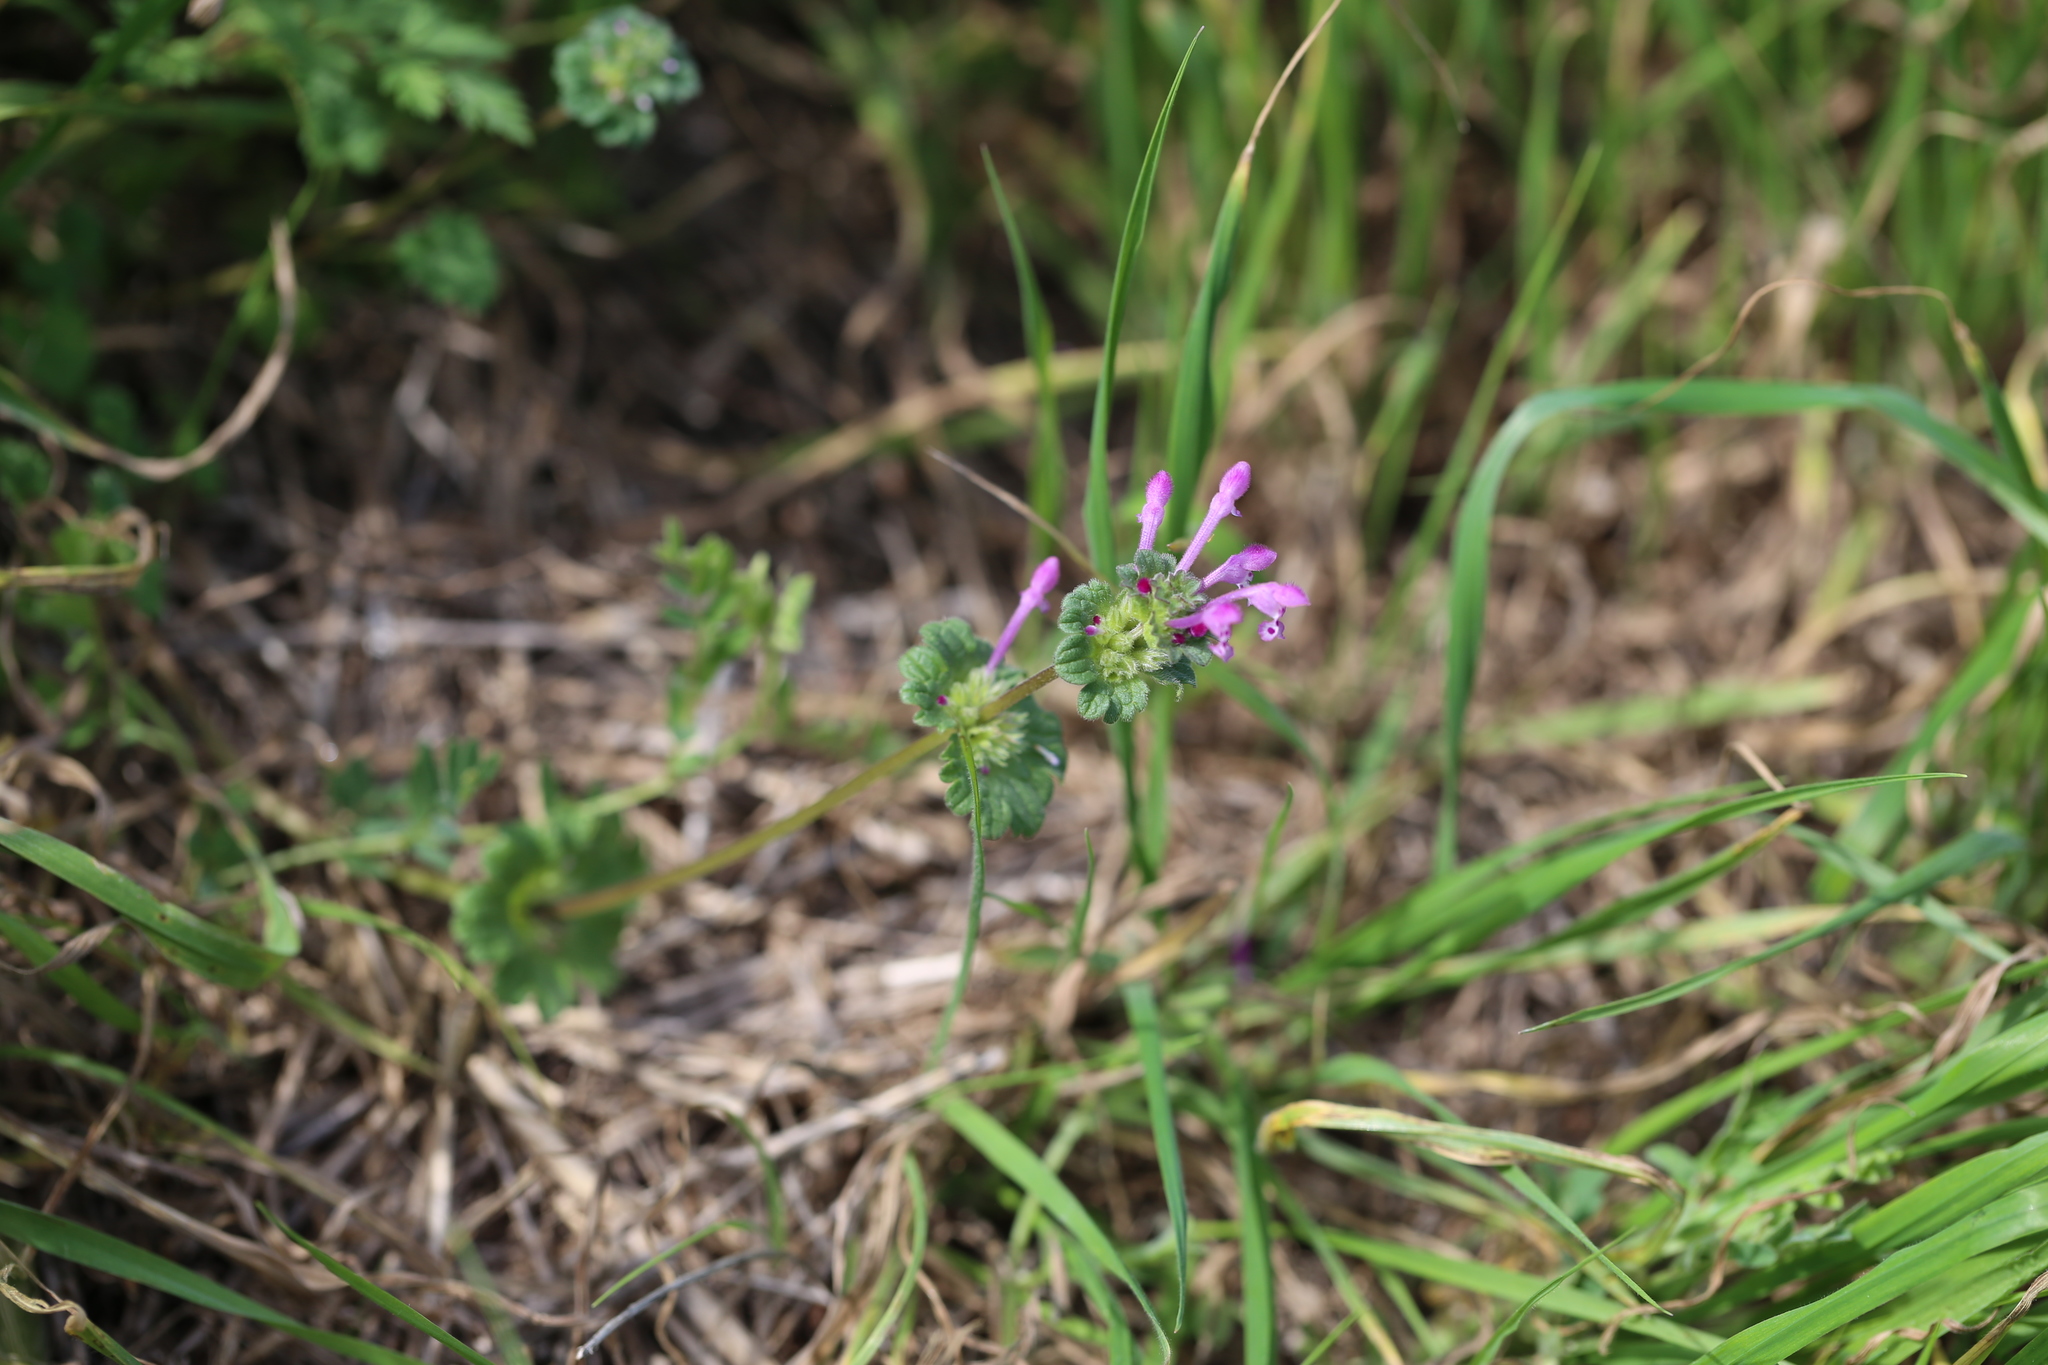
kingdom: Plantae
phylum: Tracheophyta
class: Magnoliopsida
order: Lamiales
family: Lamiaceae
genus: Lamium
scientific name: Lamium amplexicaule
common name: Henbit dead-nettle
